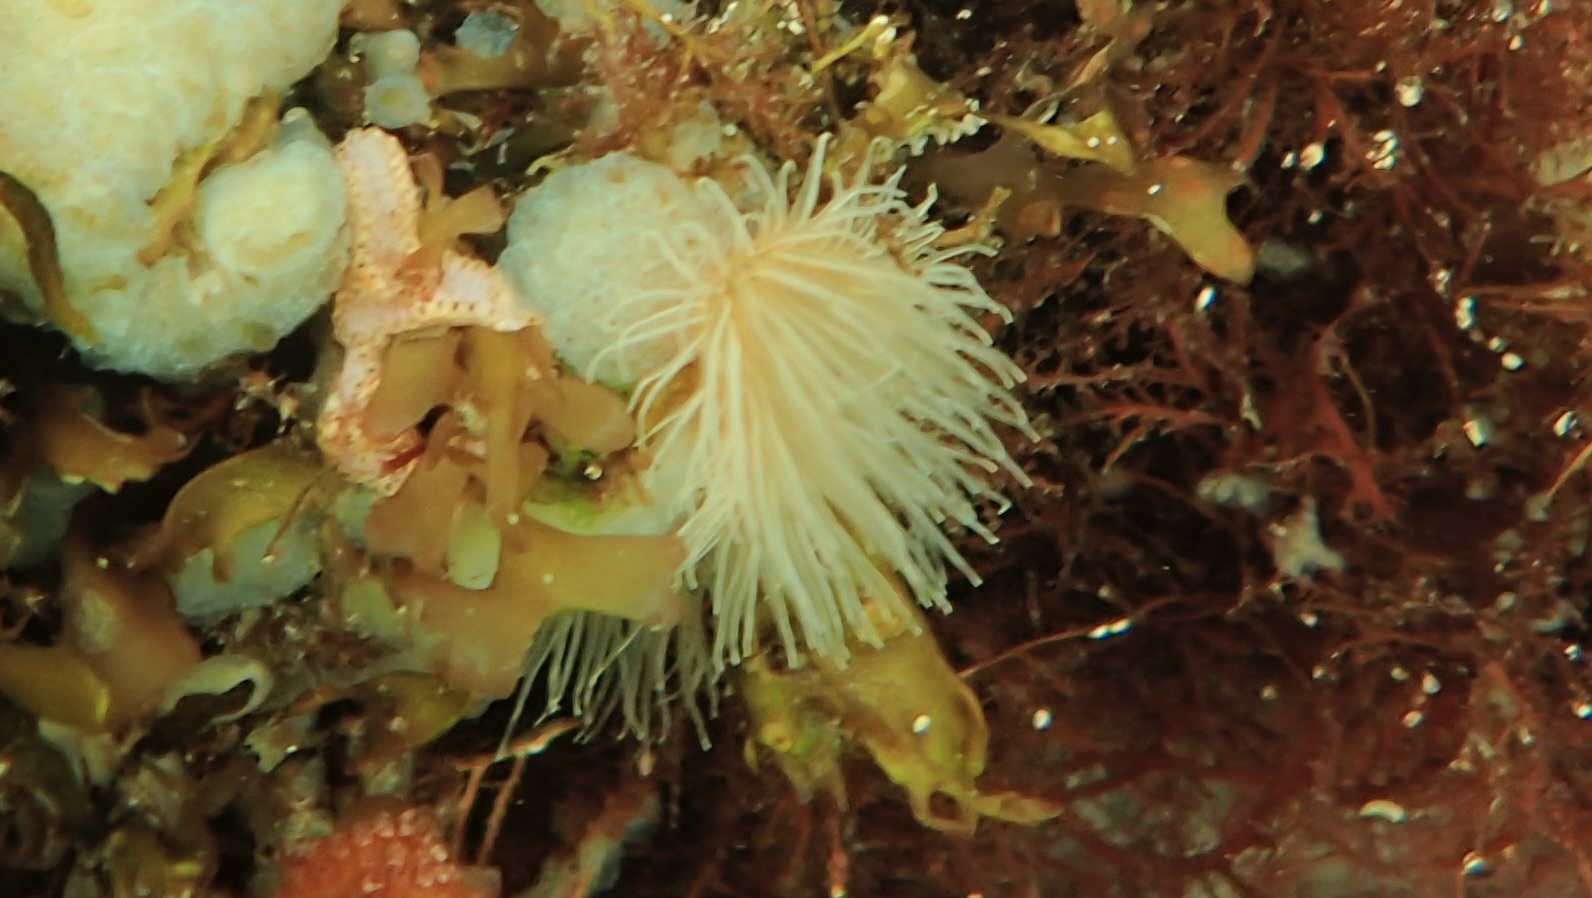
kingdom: Animalia
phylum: Cnidaria
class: Anthozoa
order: Actiniaria
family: Sagartiidae
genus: Sagartia
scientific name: Sagartia undata
